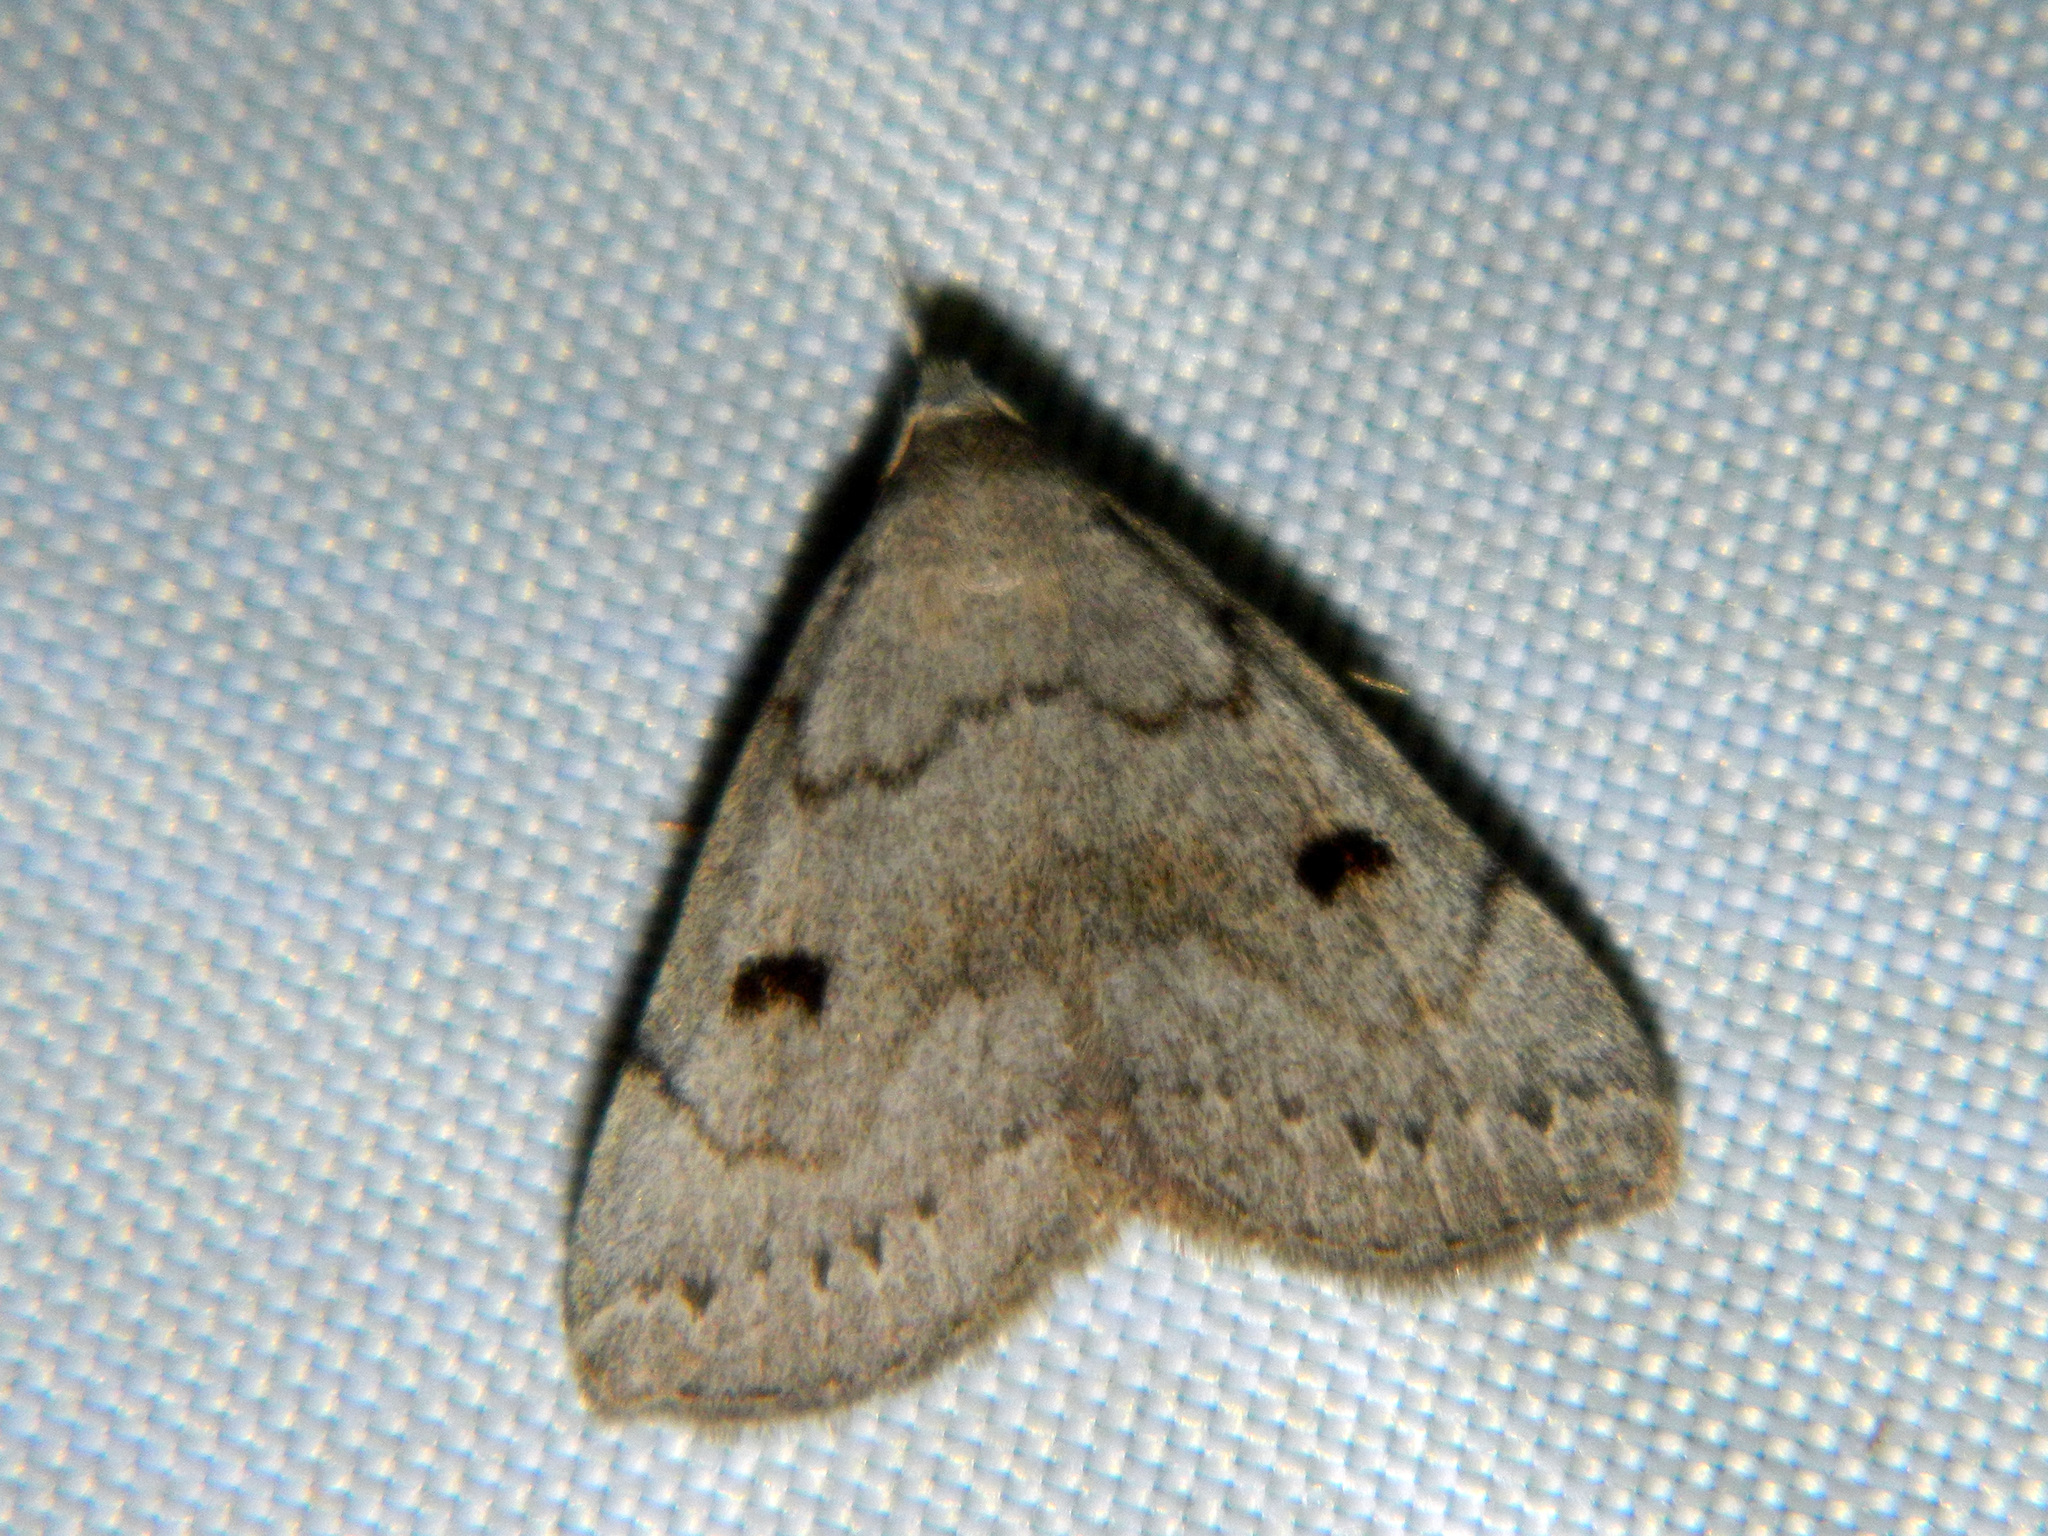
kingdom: Animalia
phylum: Arthropoda
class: Insecta
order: Lepidoptera
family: Erebidae
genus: Macrochilo
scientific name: Macrochilo morbidalis
